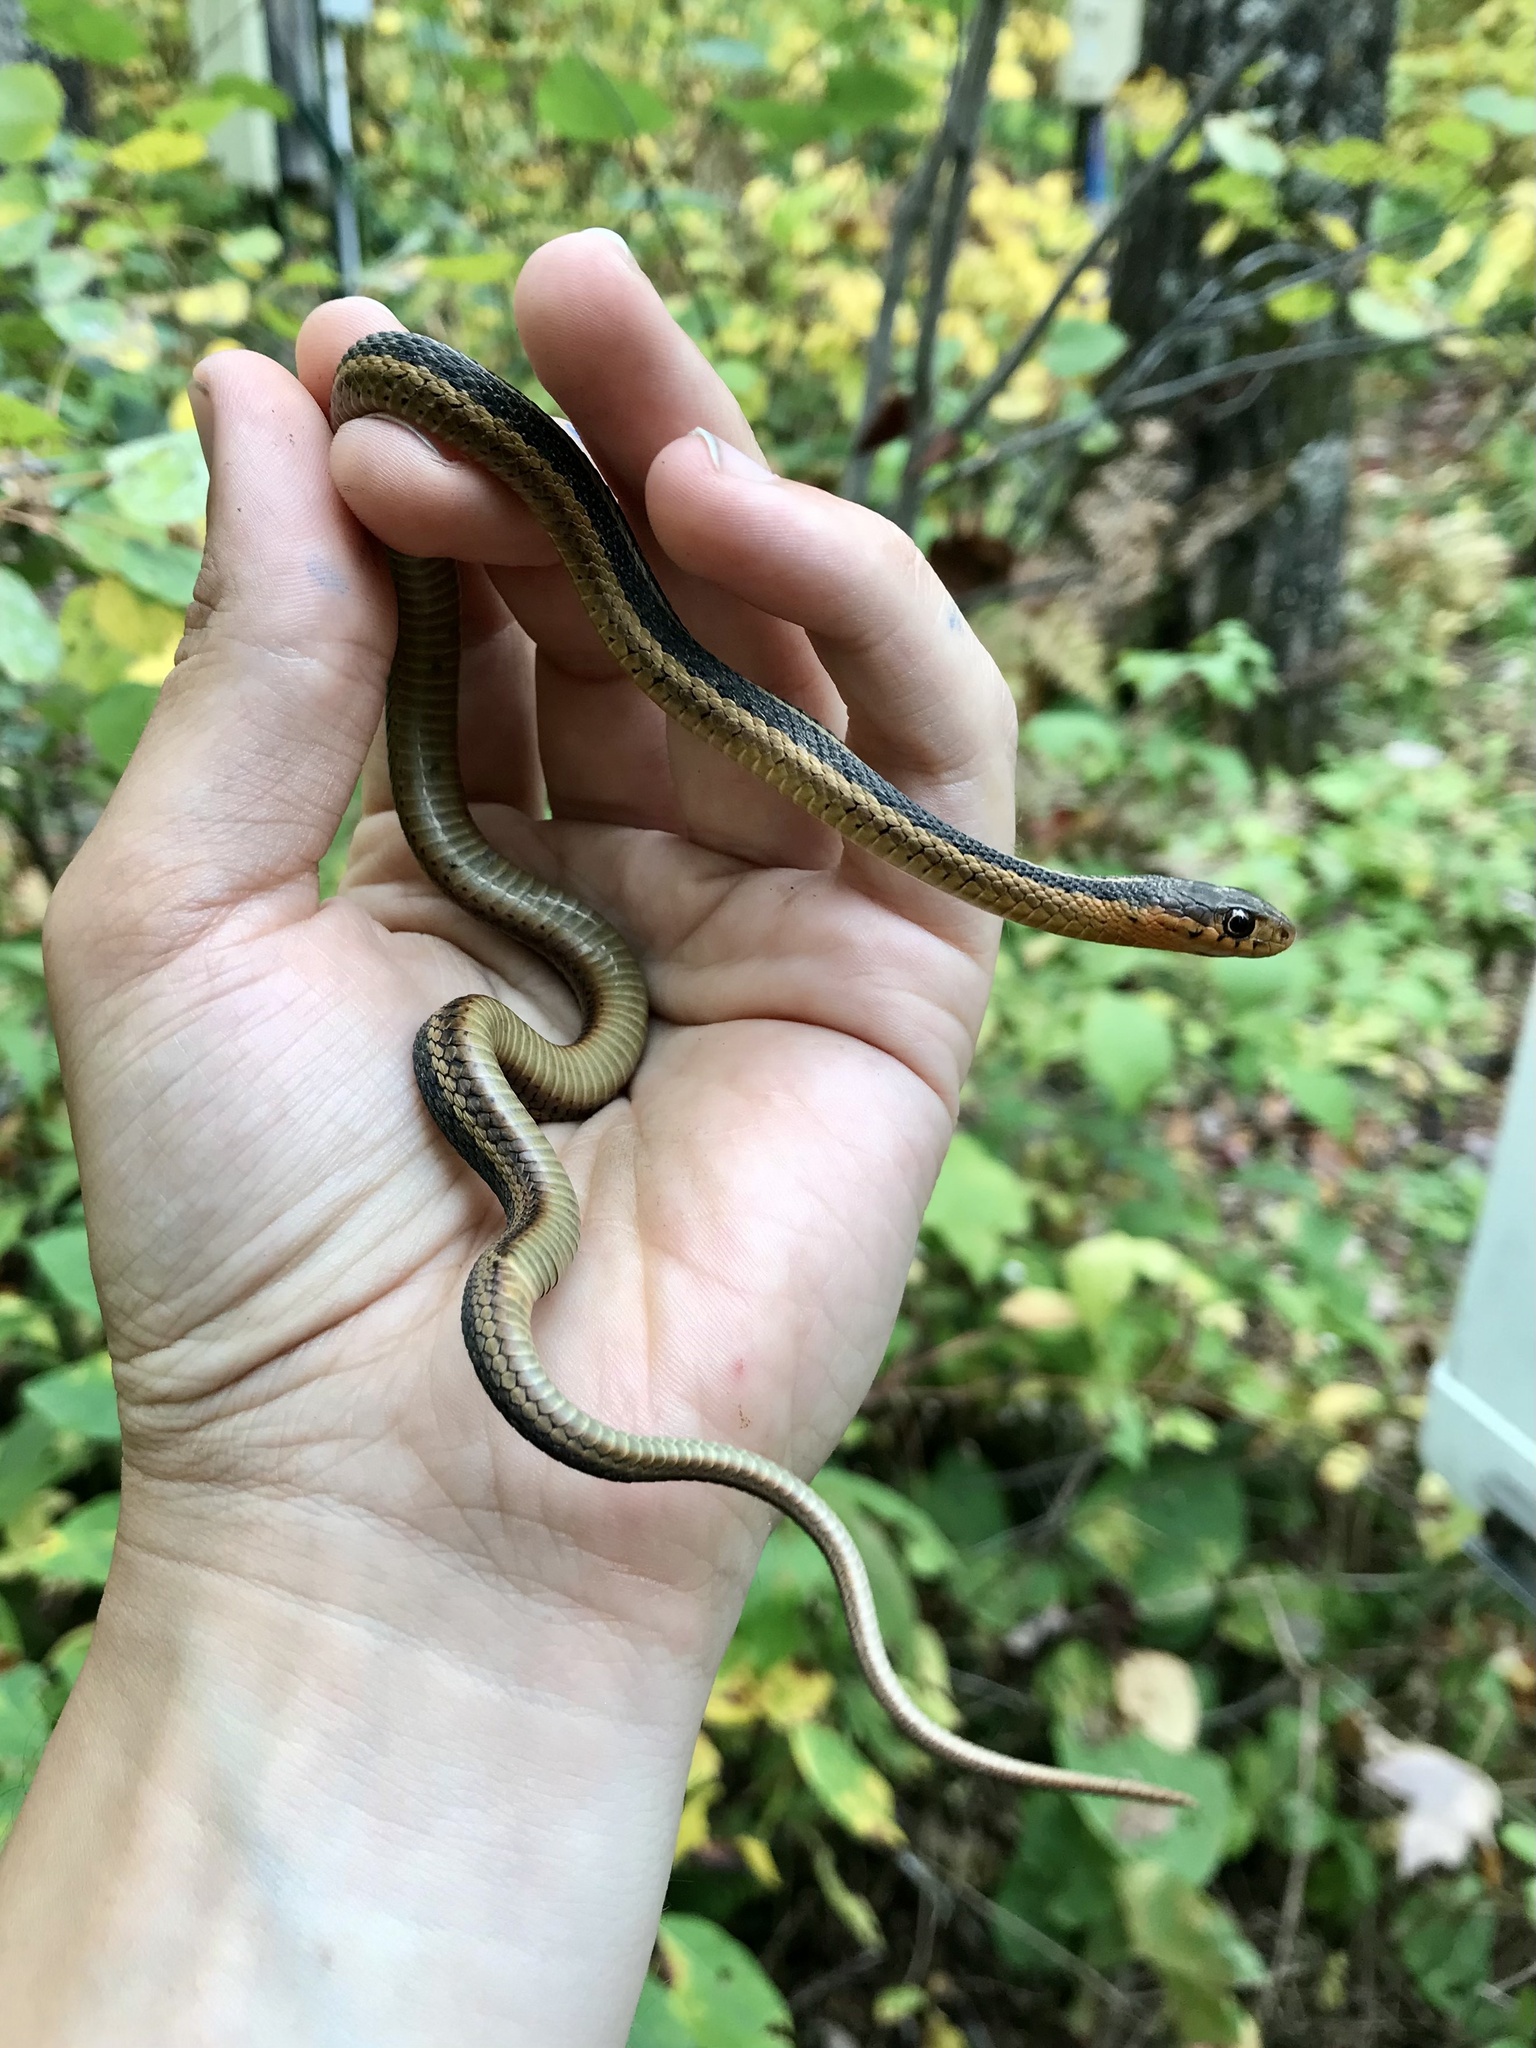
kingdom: Animalia
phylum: Chordata
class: Squamata
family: Colubridae
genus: Thamnophis
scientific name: Thamnophis sirtalis
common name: Common garter snake
